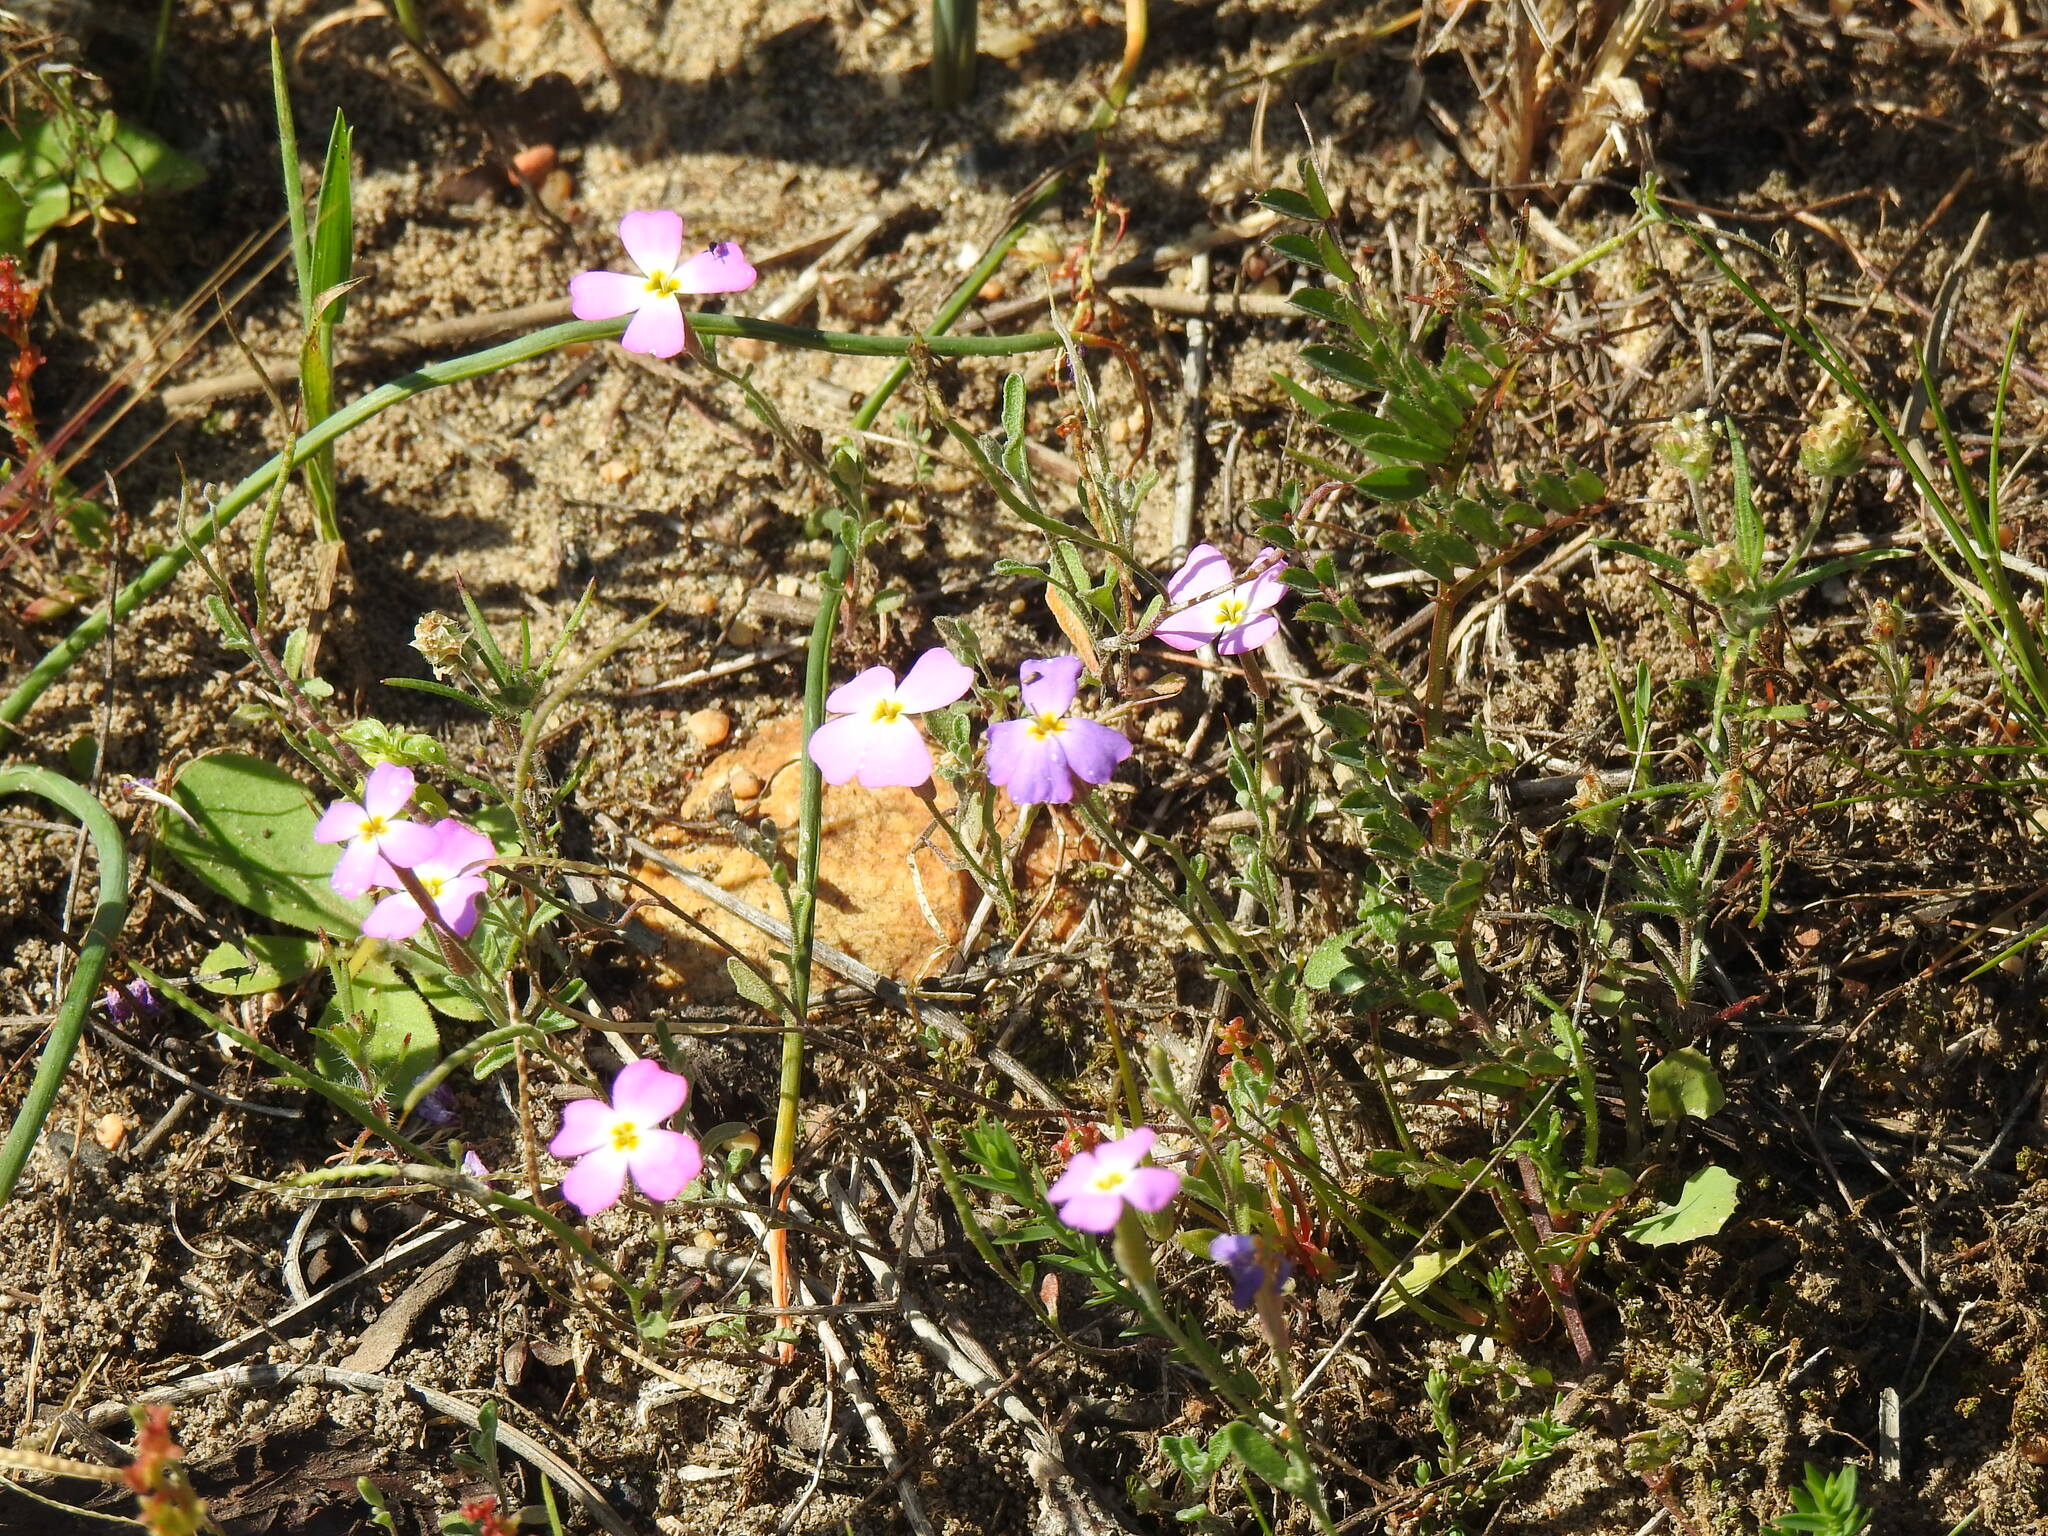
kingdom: Plantae
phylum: Tracheophyta
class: Magnoliopsida
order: Brassicales
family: Brassicaceae
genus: Marcuskochia
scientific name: Marcuskochia triloba
